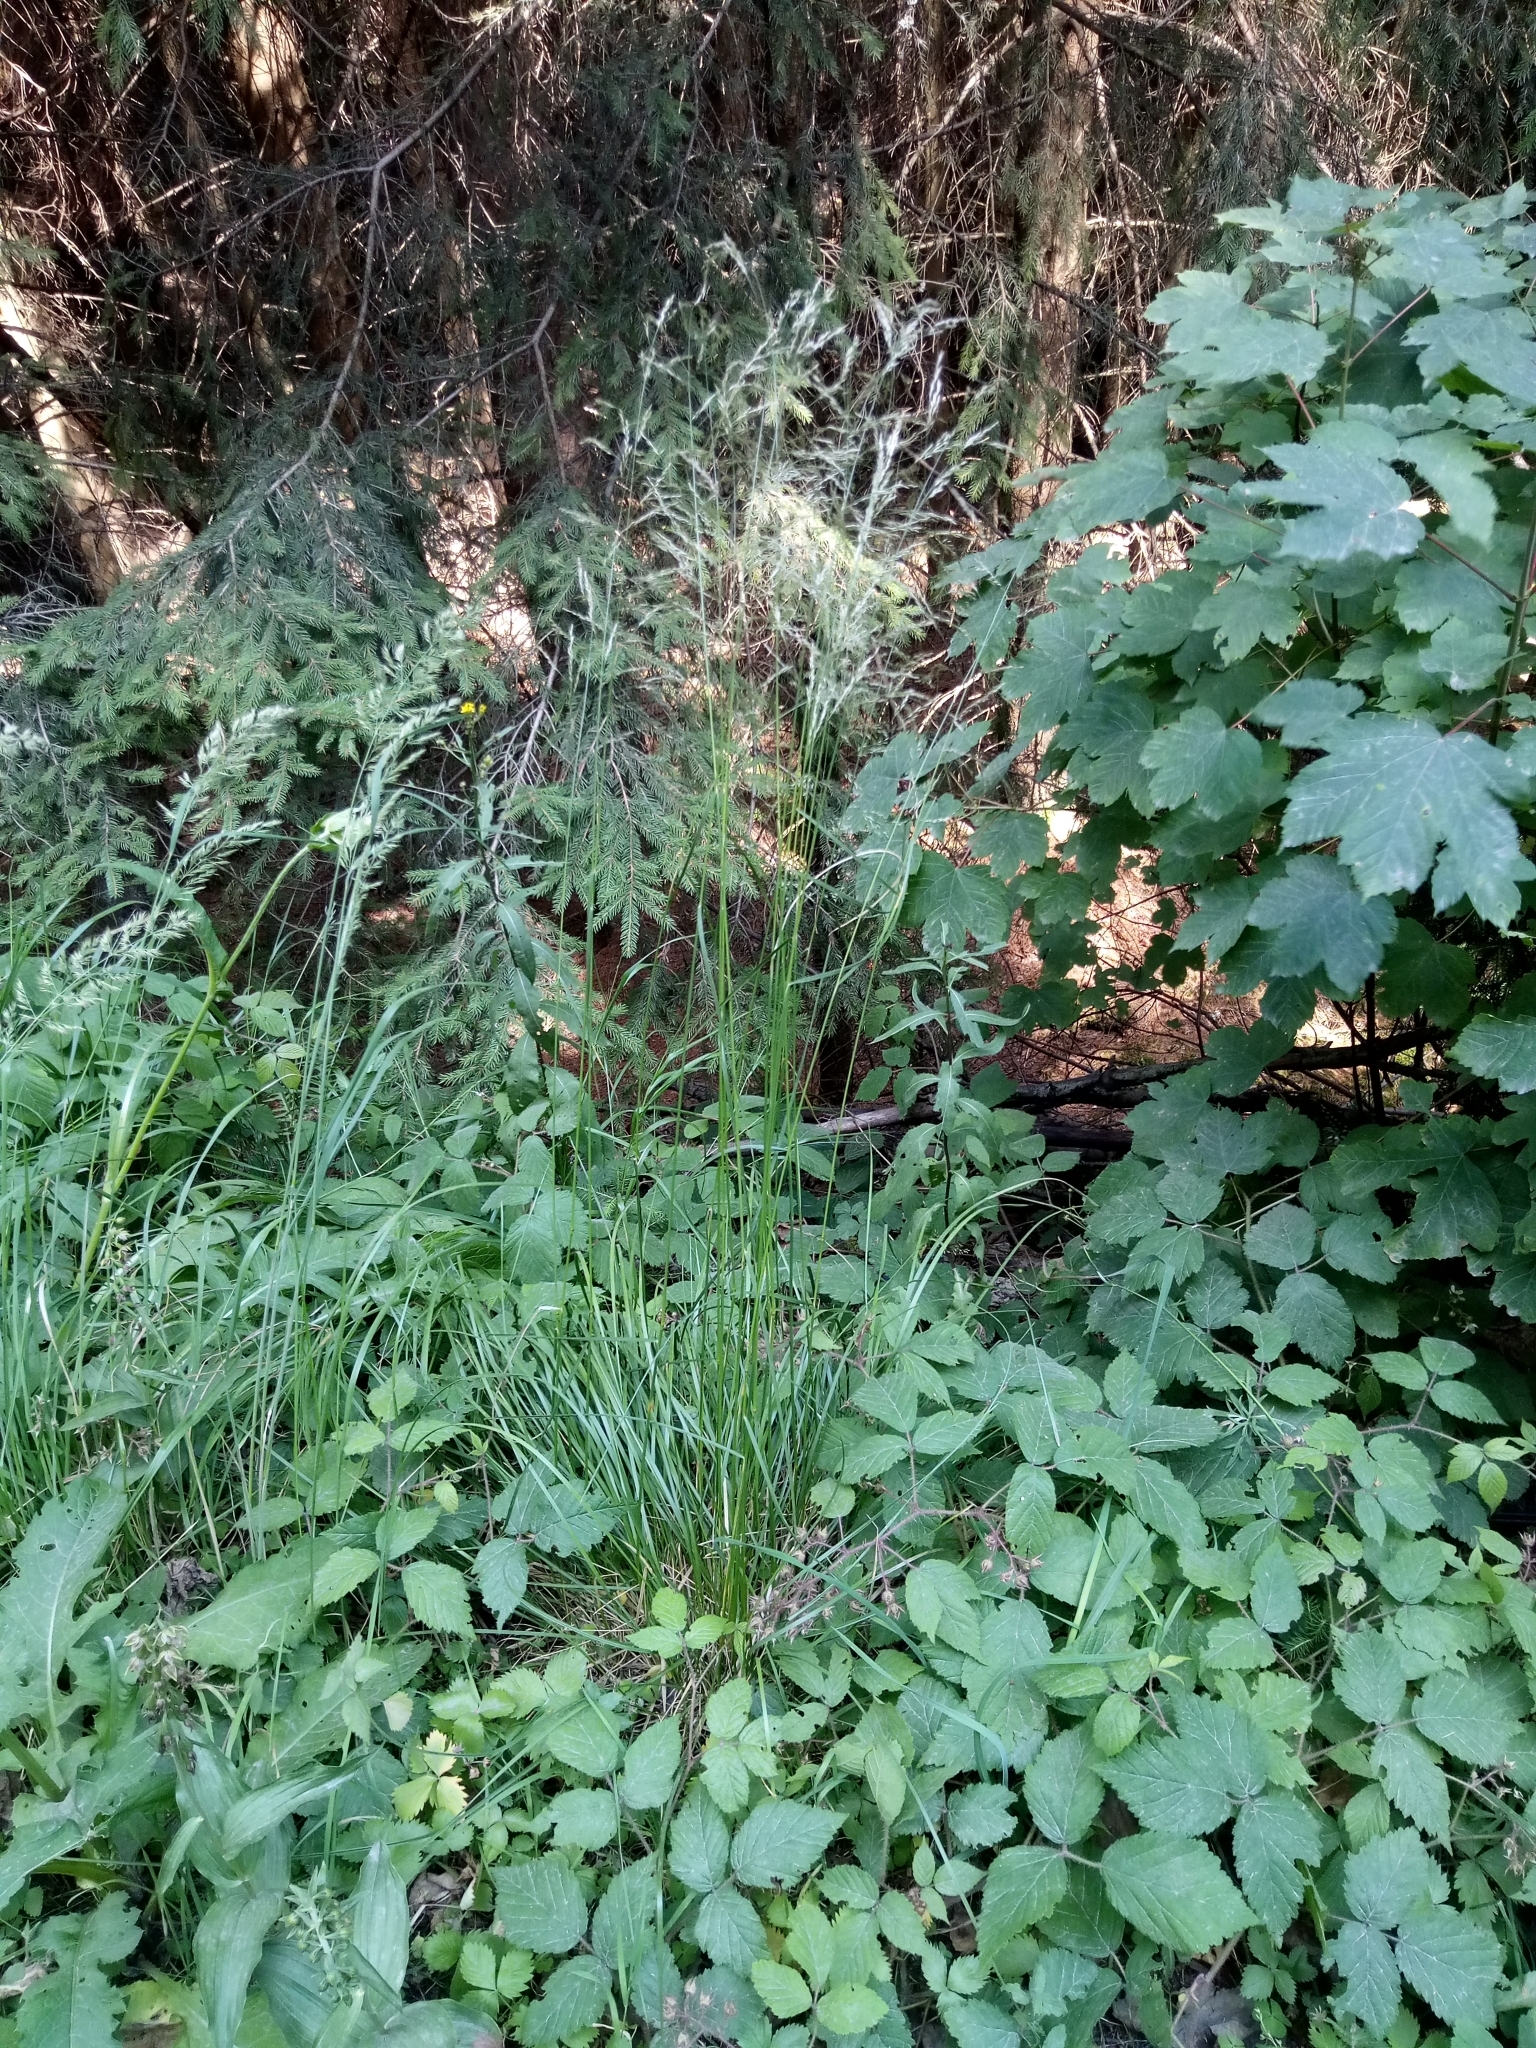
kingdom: Plantae
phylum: Tracheophyta
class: Liliopsida
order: Poales
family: Poaceae
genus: Deschampsia
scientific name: Deschampsia cespitosa
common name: Tufted hair-grass
